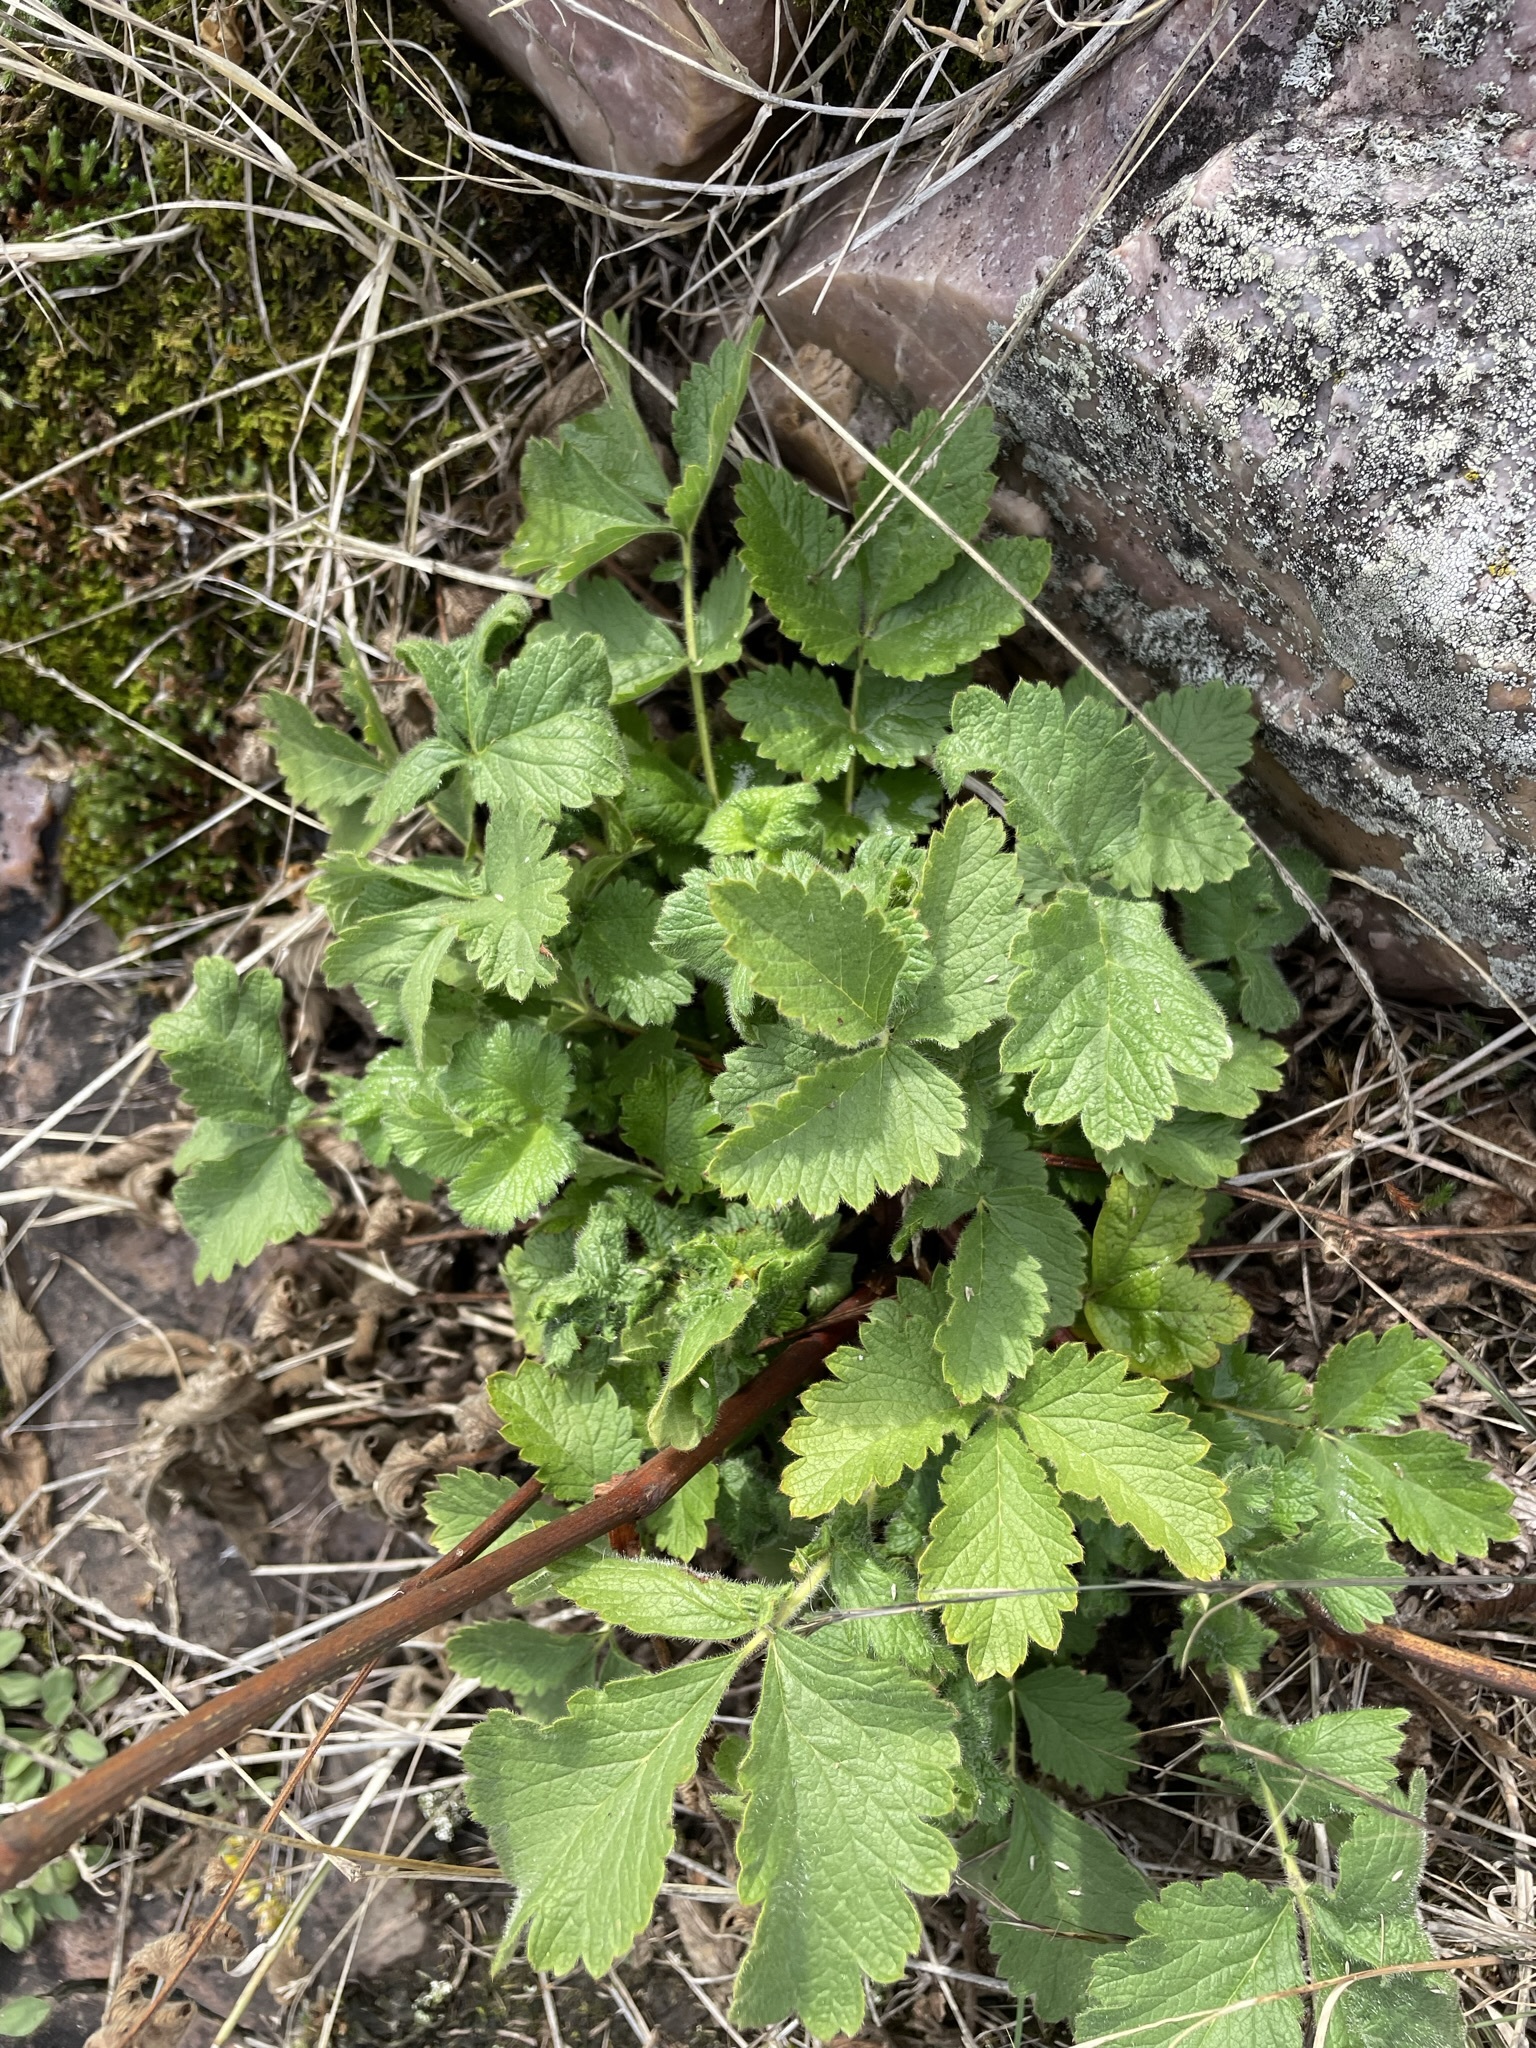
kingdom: Plantae
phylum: Tracheophyta
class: Magnoliopsida
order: Rosales
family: Rosaceae
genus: Drymocallis
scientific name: Drymocallis arguta
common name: Tall cinquefoil
